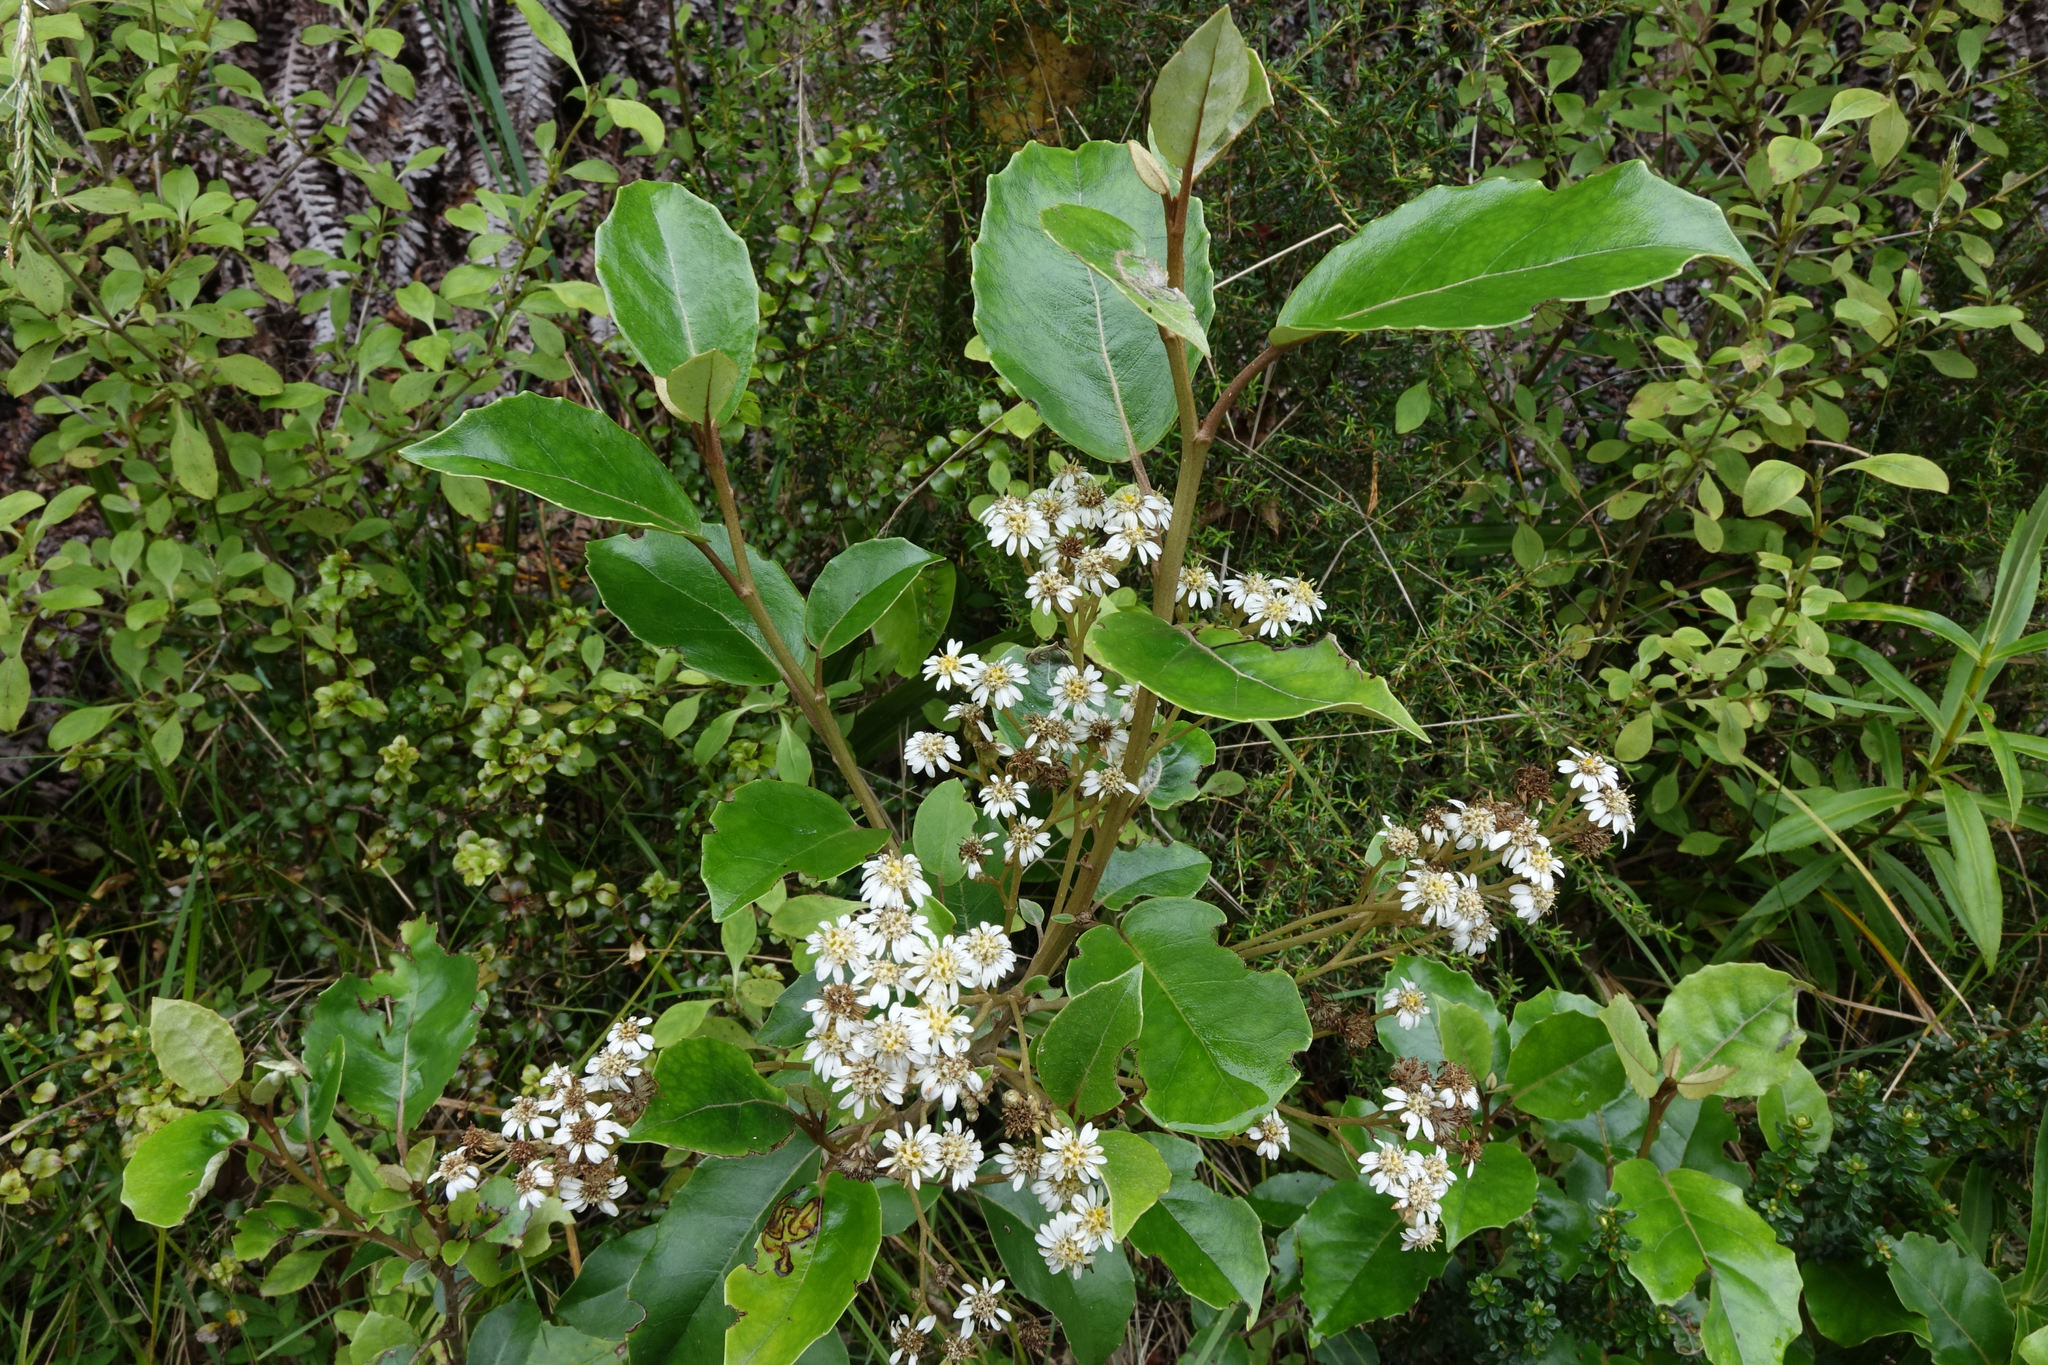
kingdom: Plantae
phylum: Tracheophyta
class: Magnoliopsida
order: Asterales
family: Asteraceae
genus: Olearia
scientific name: Olearia arborescens
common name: Glossy tree daisy
